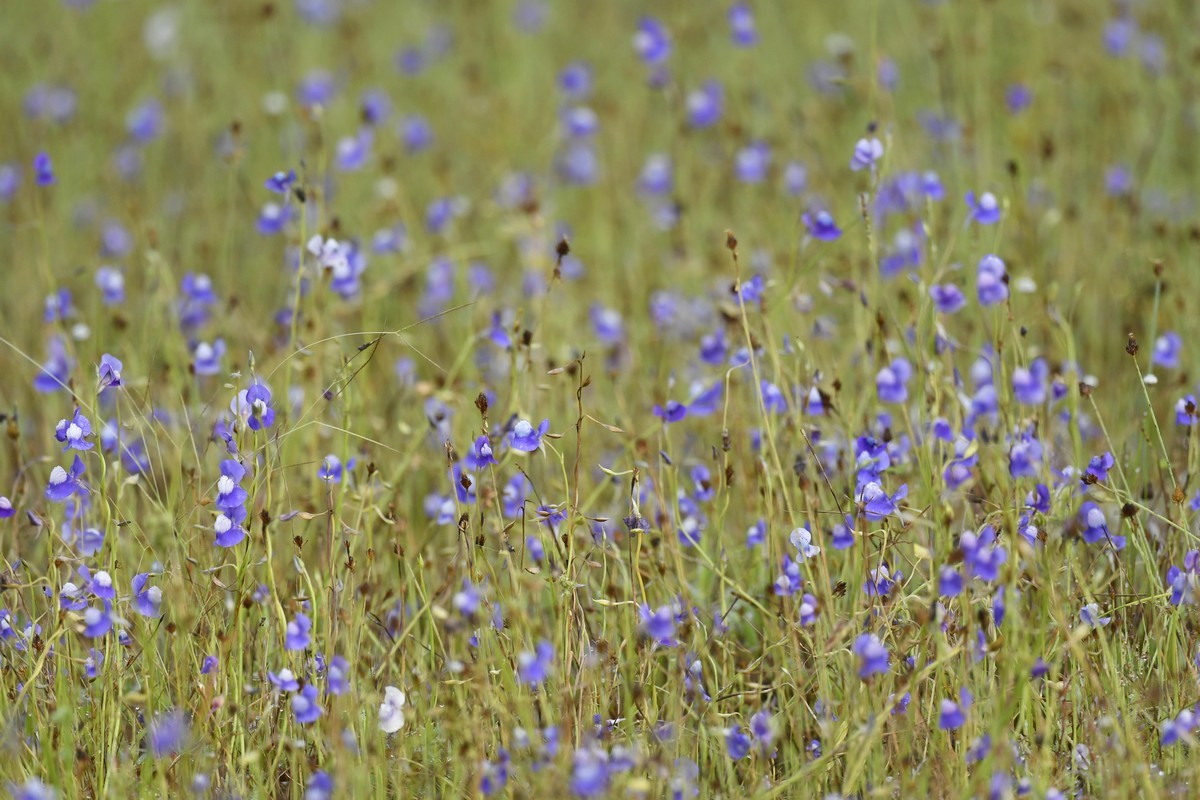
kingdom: Plantae
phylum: Tracheophyta
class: Magnoliopsida
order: Lamiales
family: Lentibulariaceae
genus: Utricularia
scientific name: Utricularia reticulata
